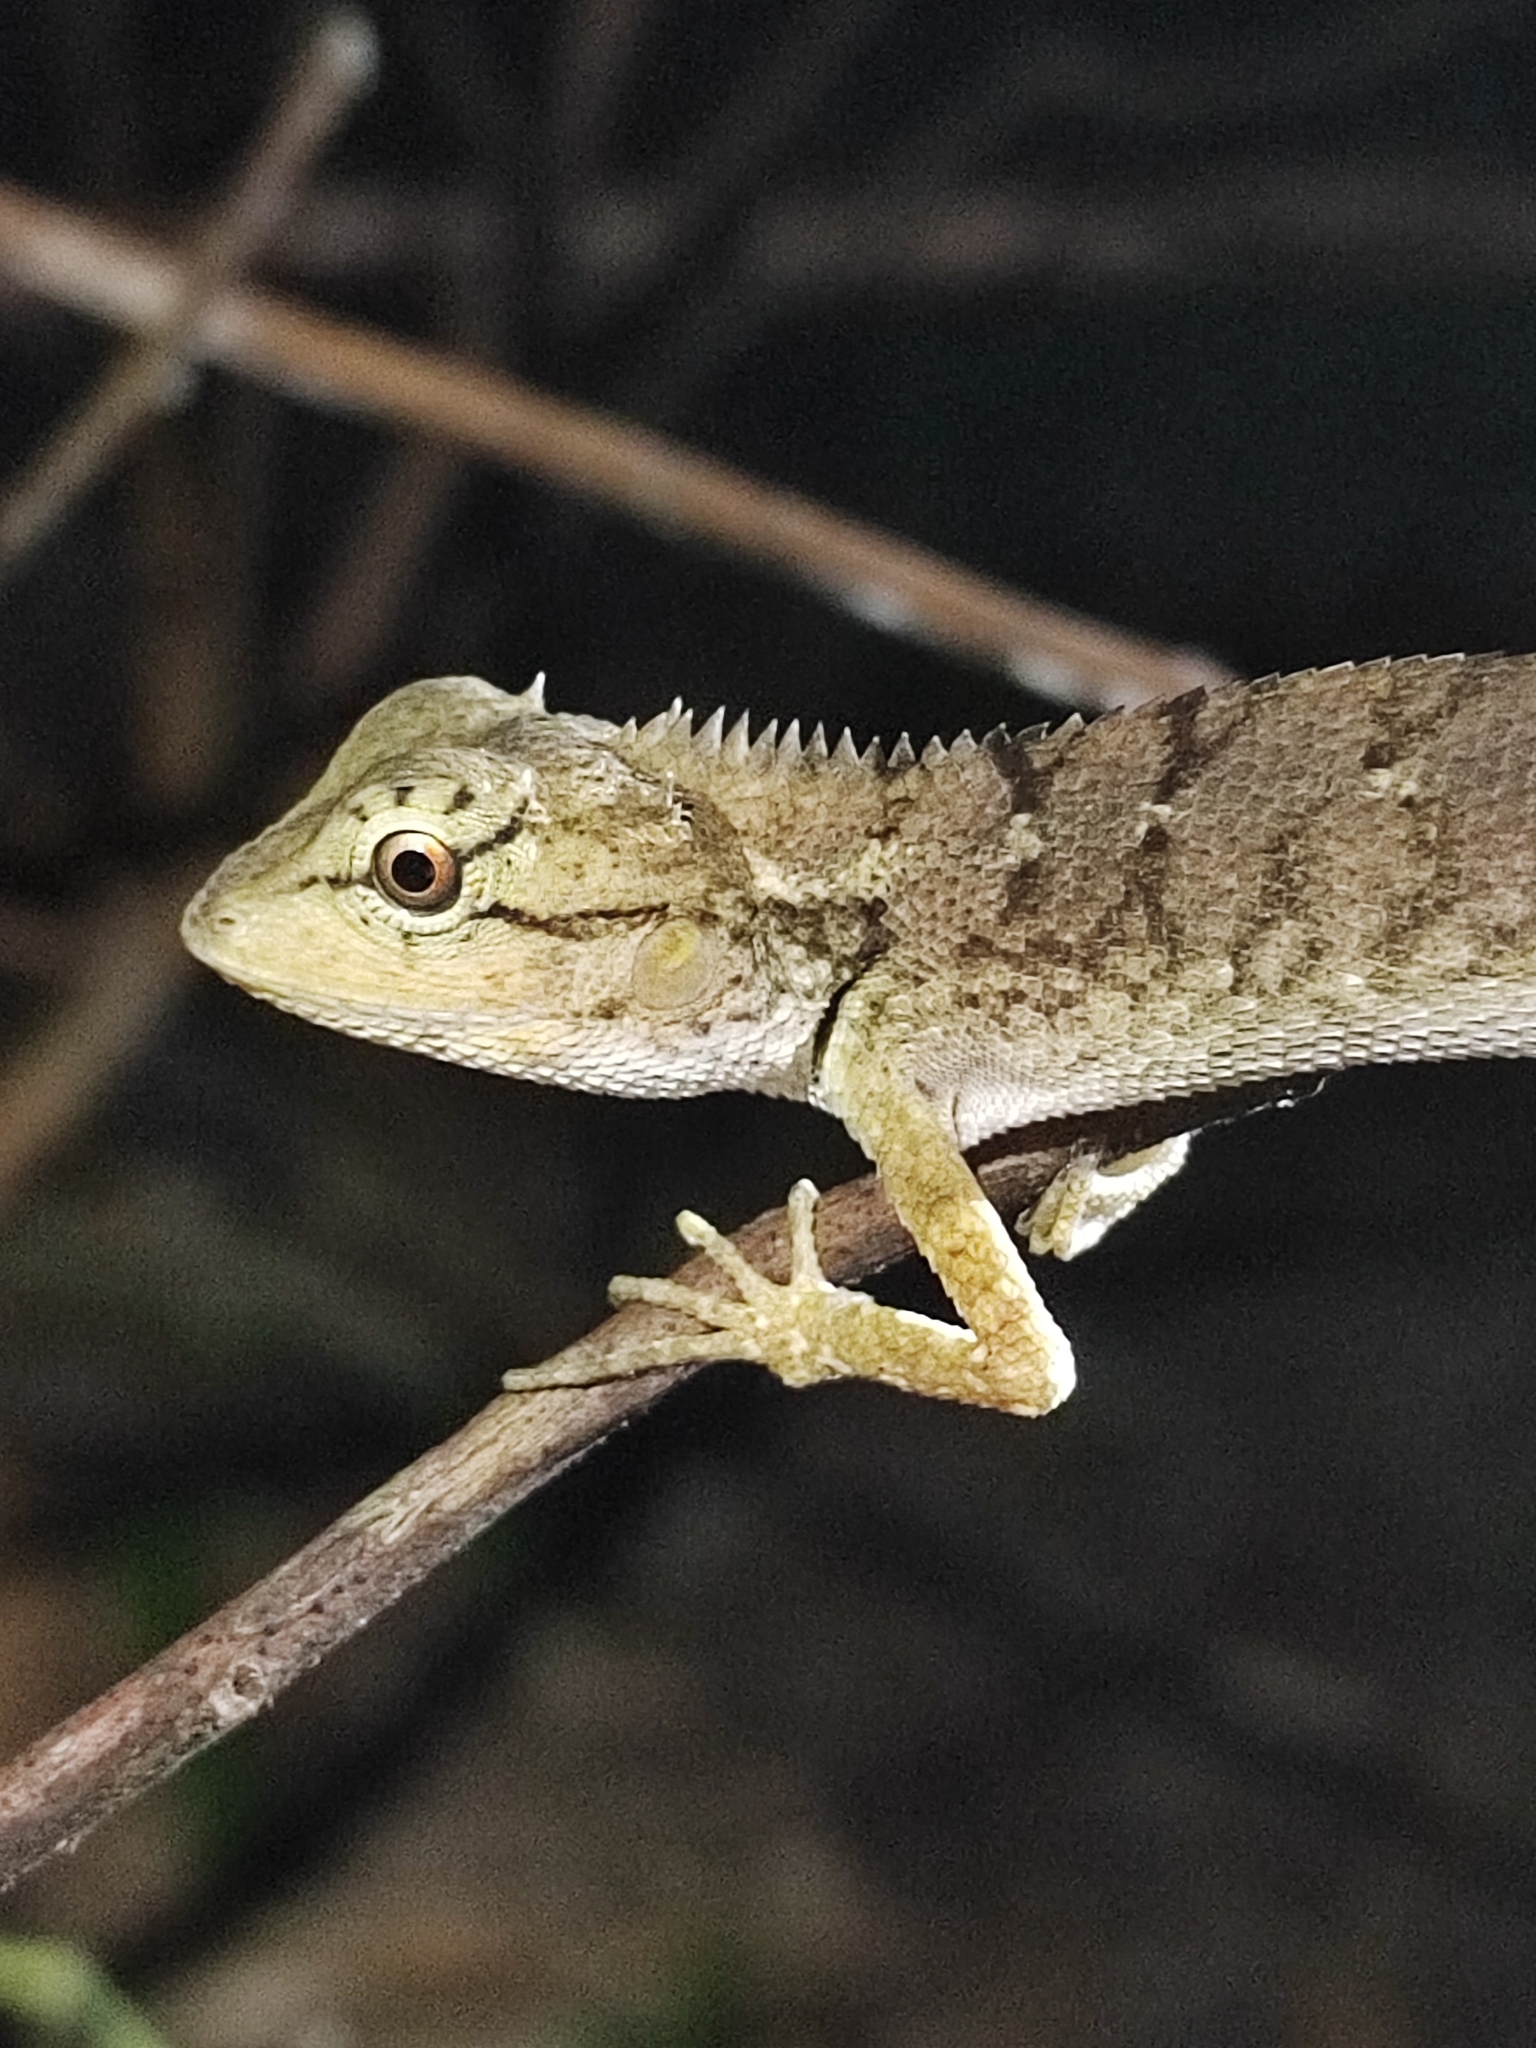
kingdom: Animalia
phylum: Chordata
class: Squamata
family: Agamidae
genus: Calotes
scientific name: Calotes emma
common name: Thailand bloodsucker
